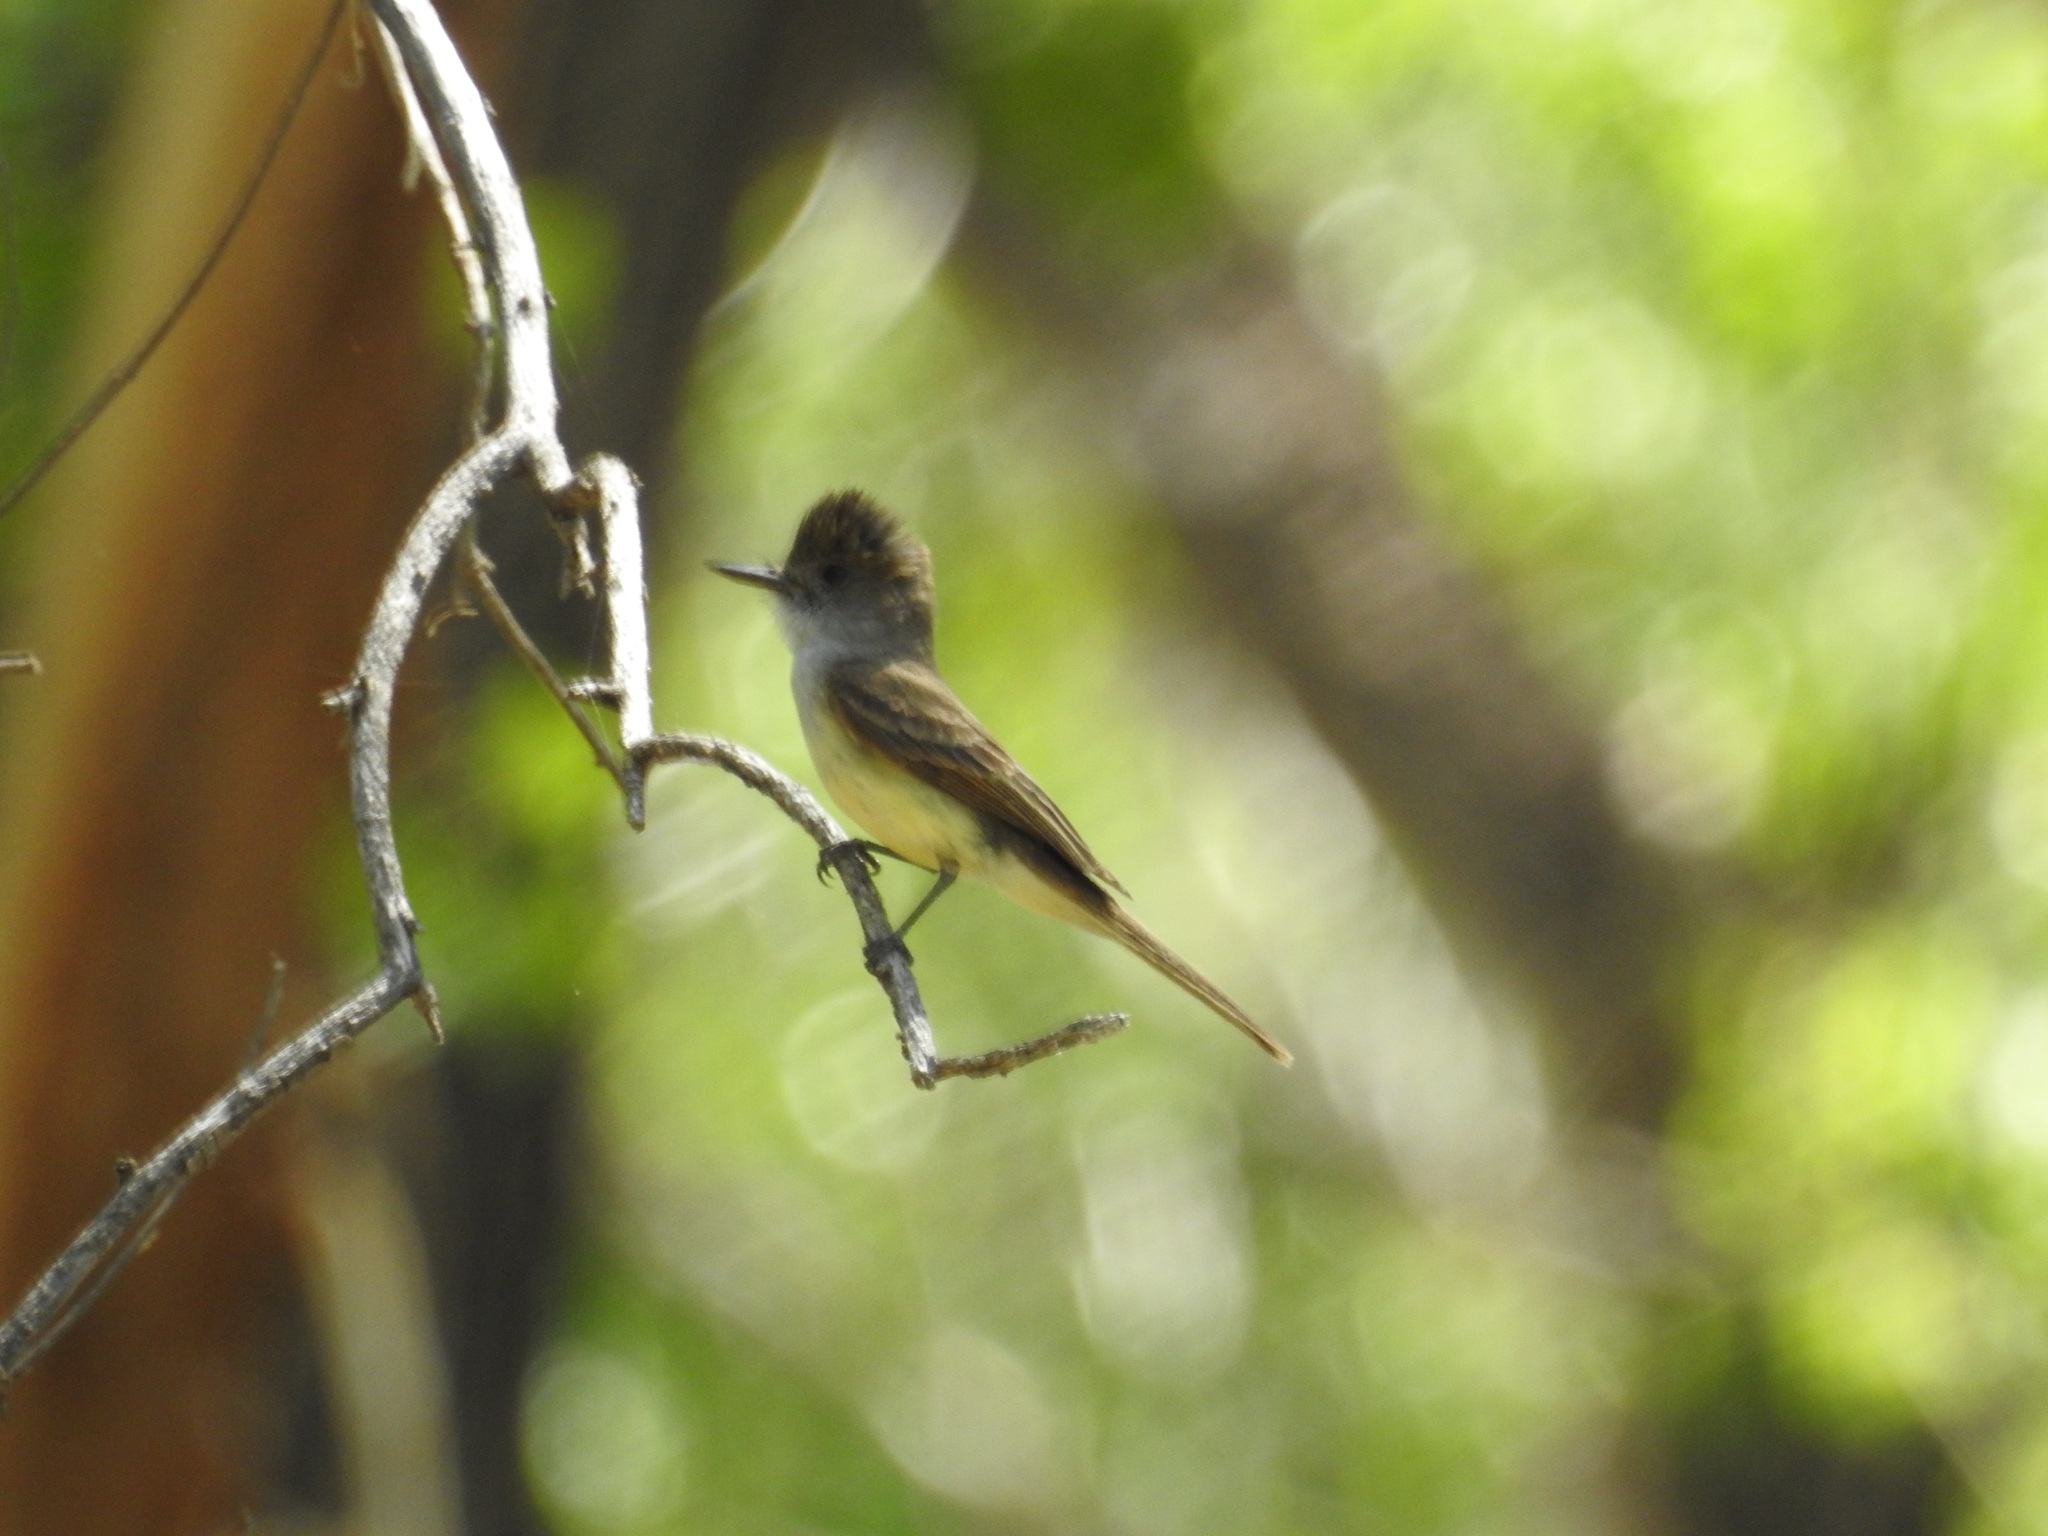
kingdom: Animalia
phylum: Chordata
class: Aves
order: Passeriformes
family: Tyrannidae
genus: Myiarchus
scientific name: Myiarchus tuberculifer
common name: Dusky-capped flycatcher
